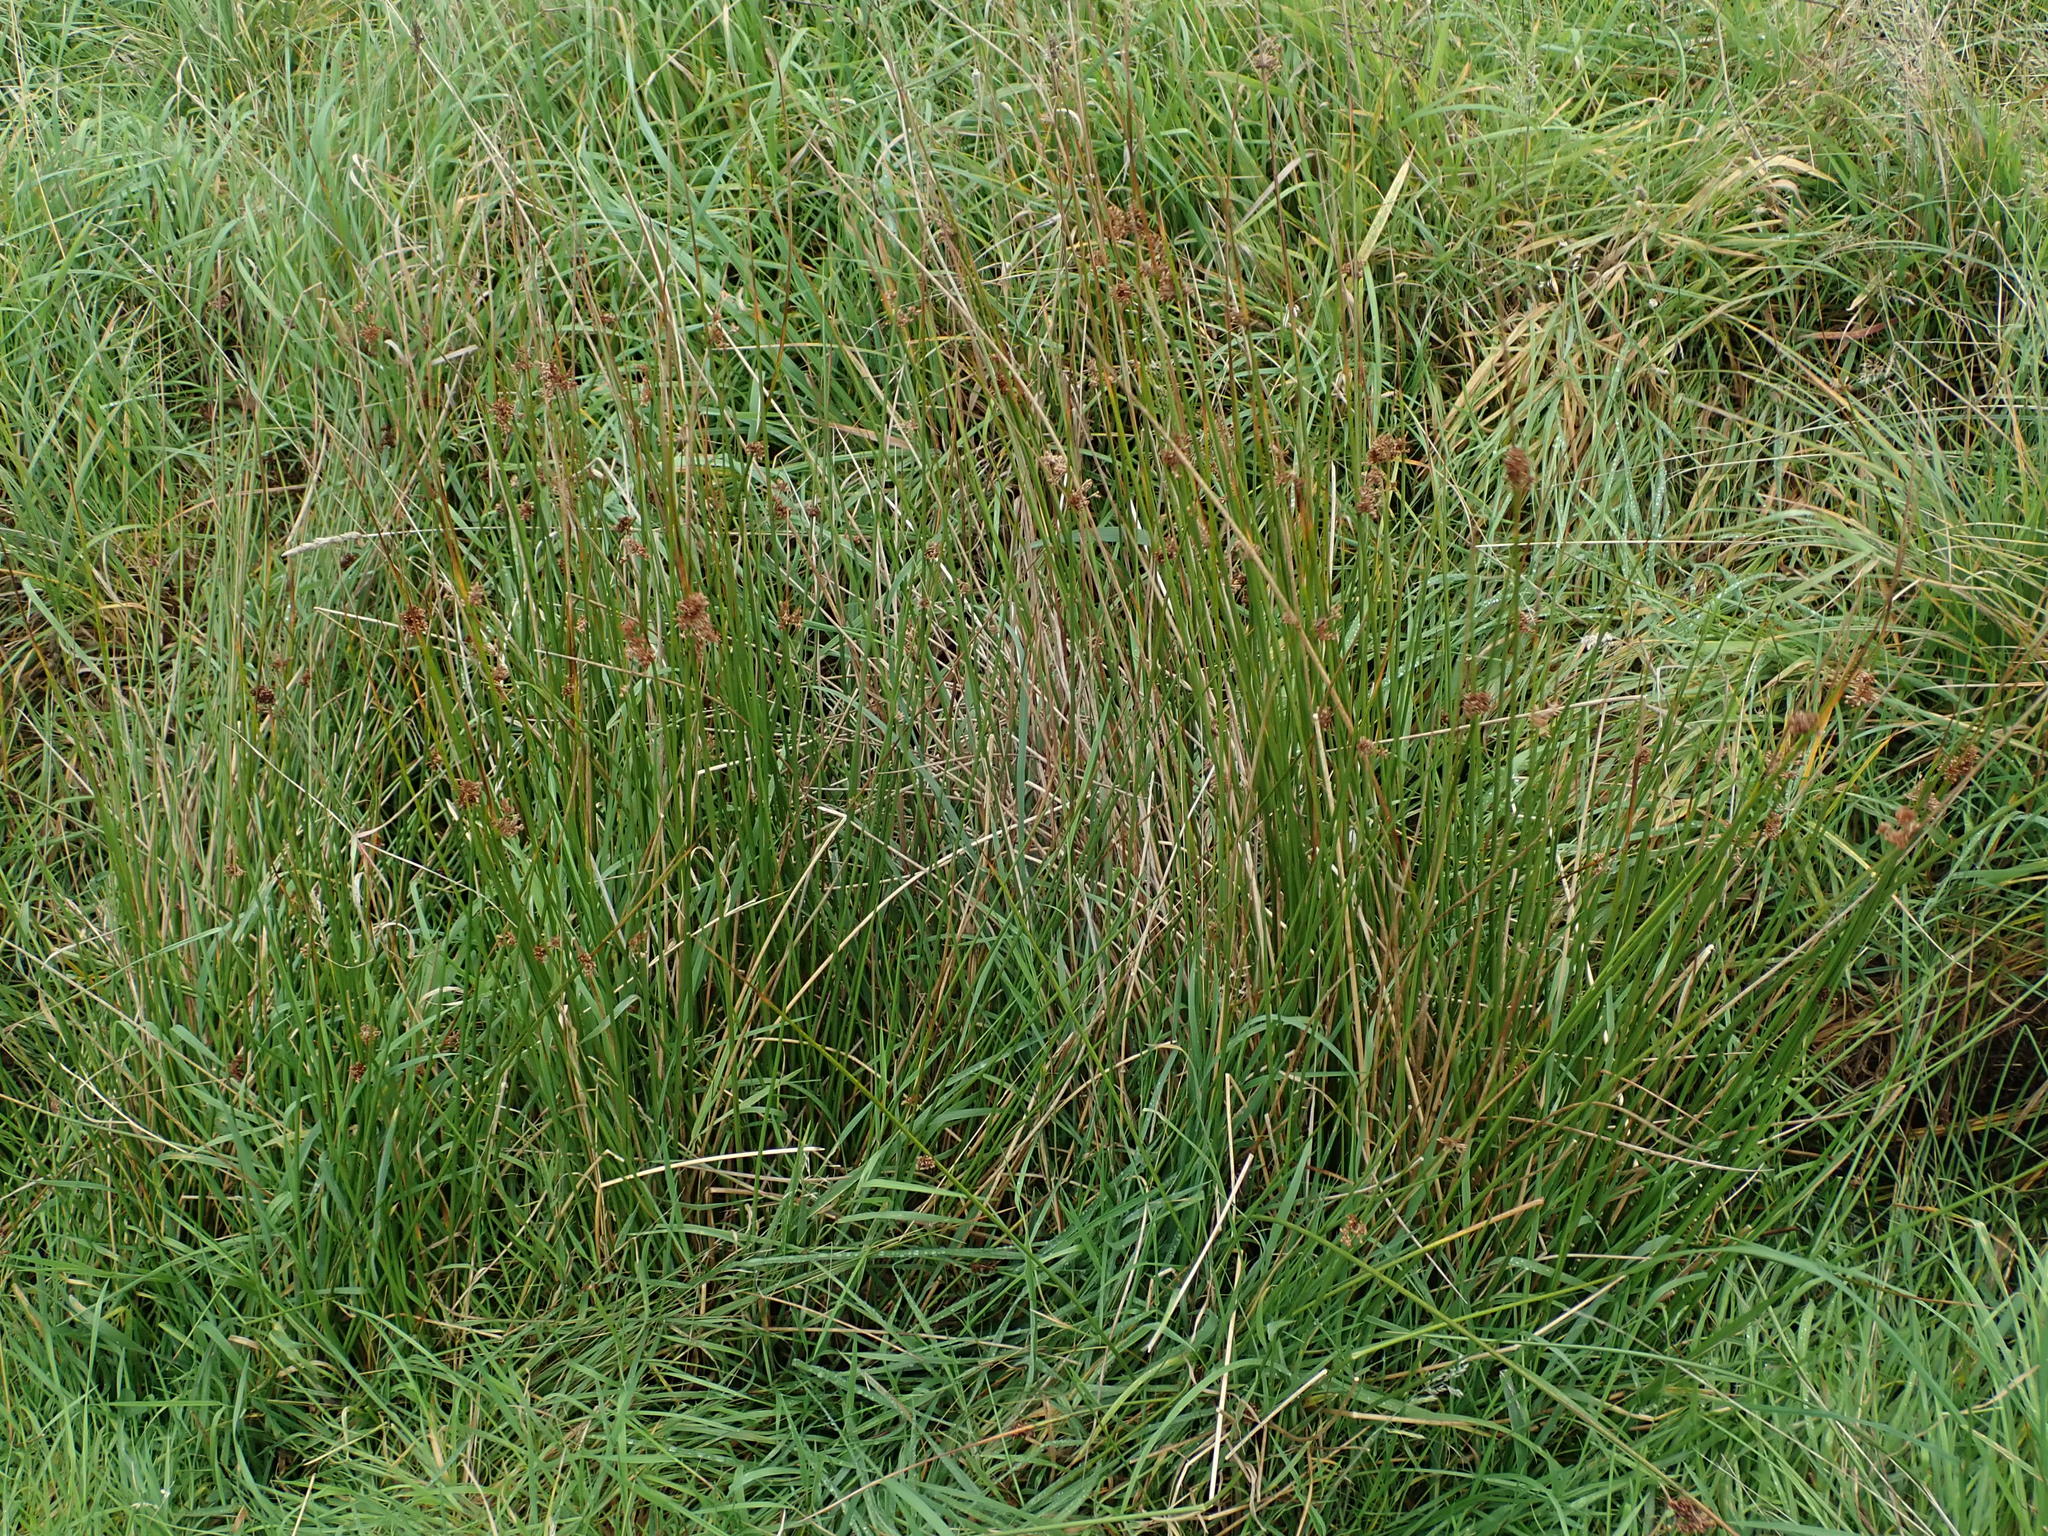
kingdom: Plantae
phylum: Tracheophyta
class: Liliopsida
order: Poales
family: Juncaceae
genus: Juncus
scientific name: Juncus effusus
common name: Soft rush
